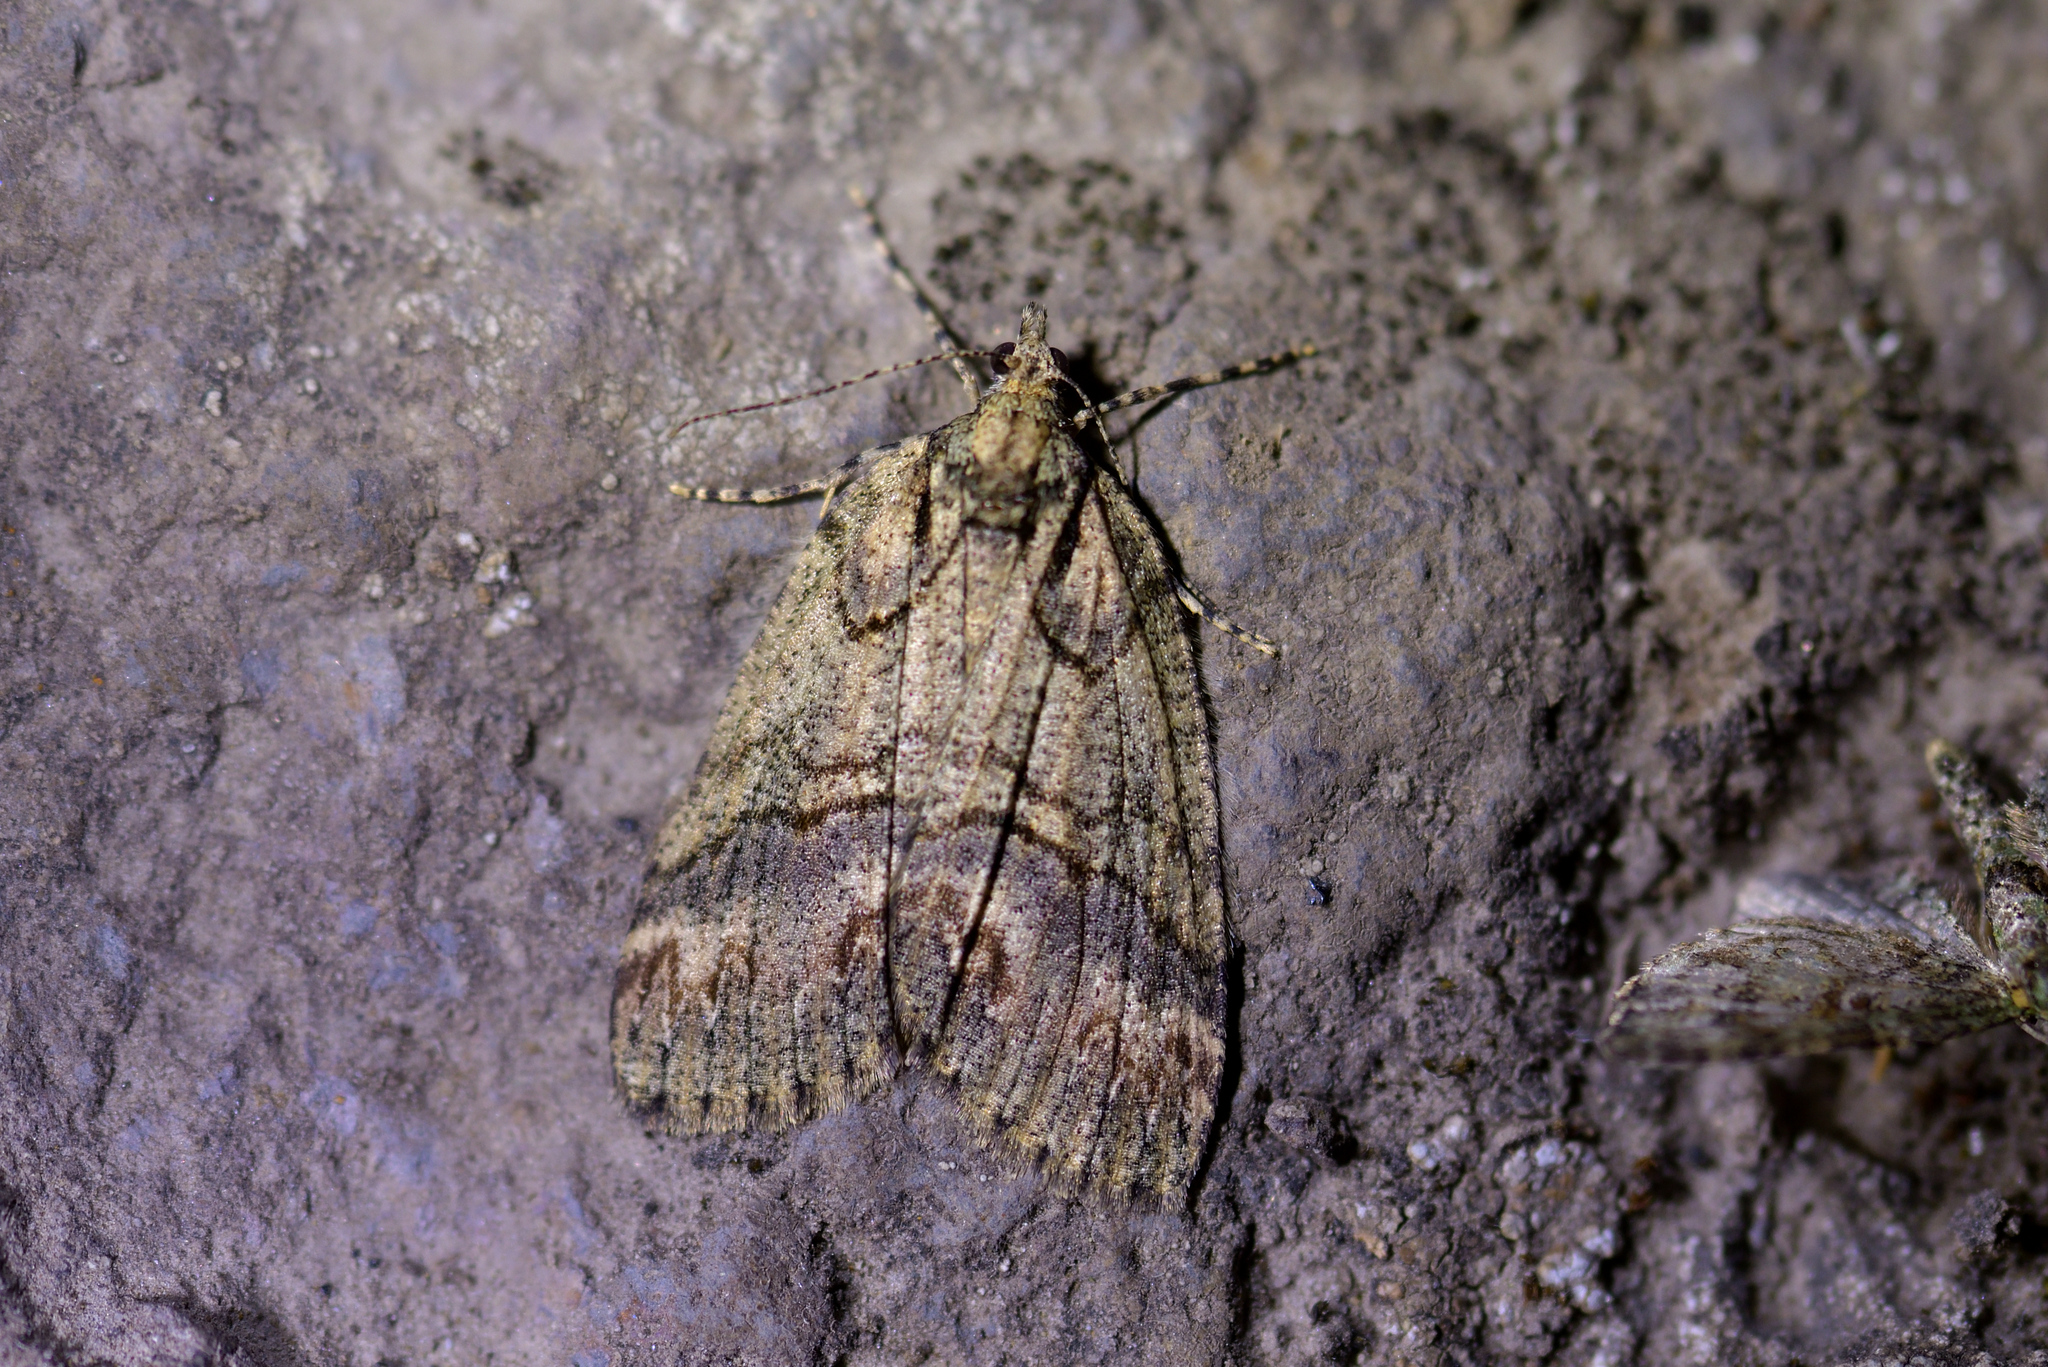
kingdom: Animalia
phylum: Arthropoda
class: Insecta
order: Lepidoptera
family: Geometridae
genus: Chalastra
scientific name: Chalastra ochrea
